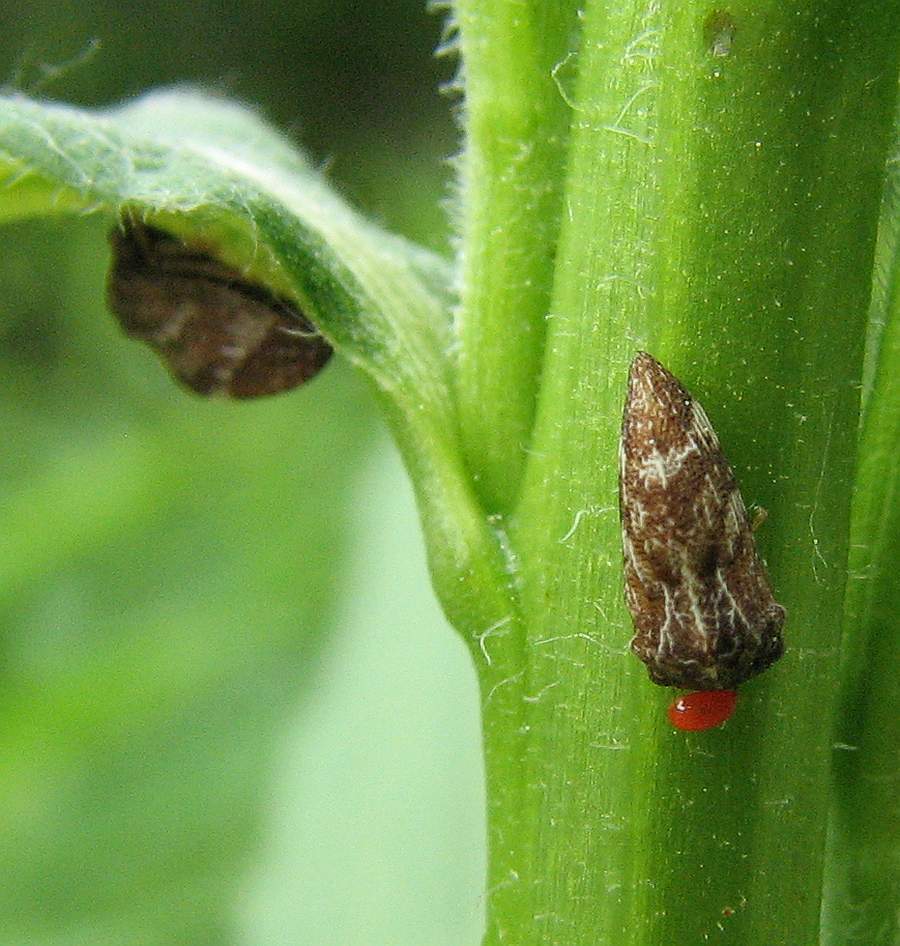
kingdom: Animalia
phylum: Arthropoda
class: Insecta
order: Hemiptera
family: Membracidae
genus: Publilia
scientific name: Publilia concava
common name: Aster treehopper
